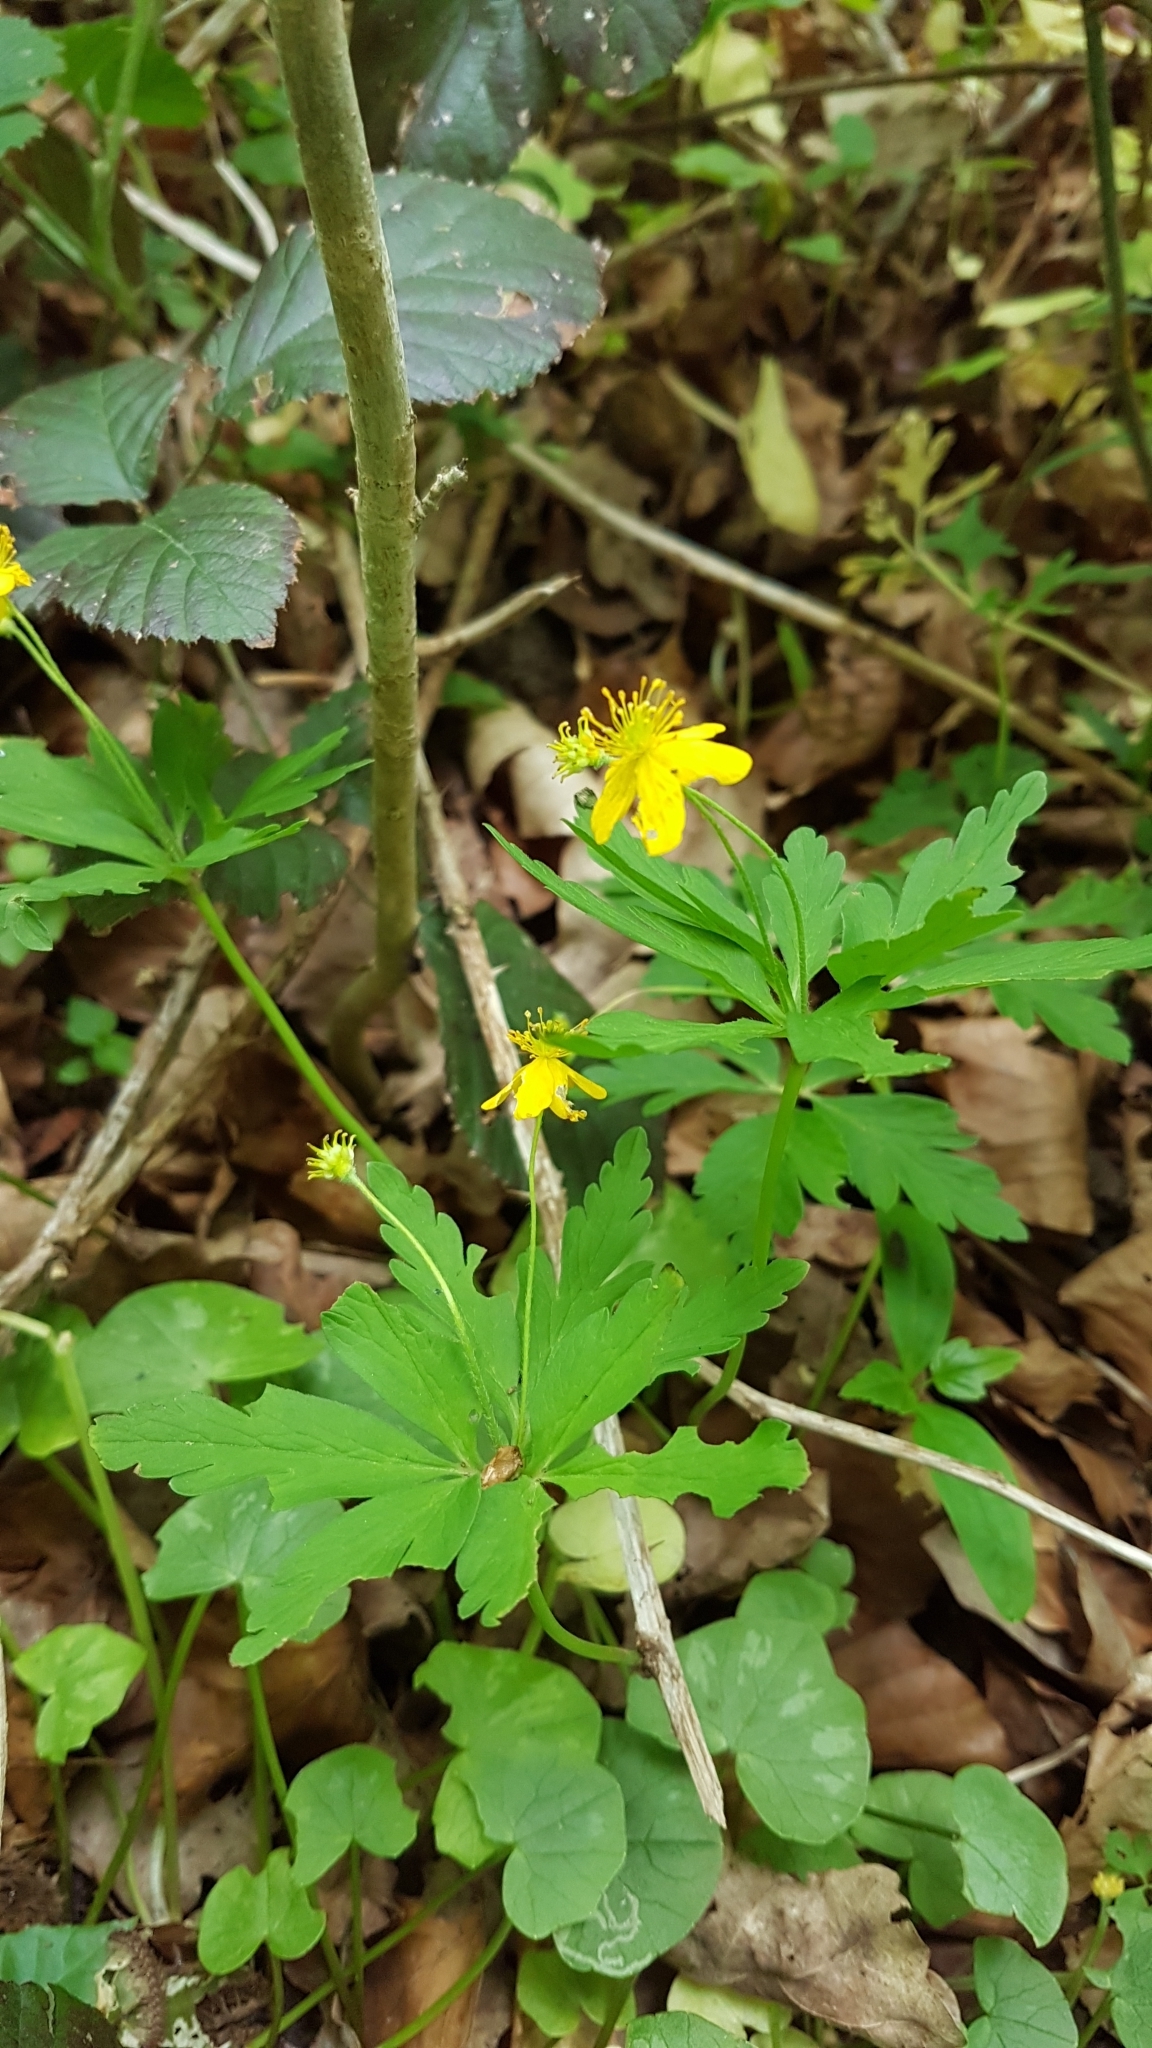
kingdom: Plantae
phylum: Tracheophyta
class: Magnoliopsida
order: Ranunculales
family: Ranunculaceae
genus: Anemone
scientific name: Anemone ranunculoides
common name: Yellow anemone
